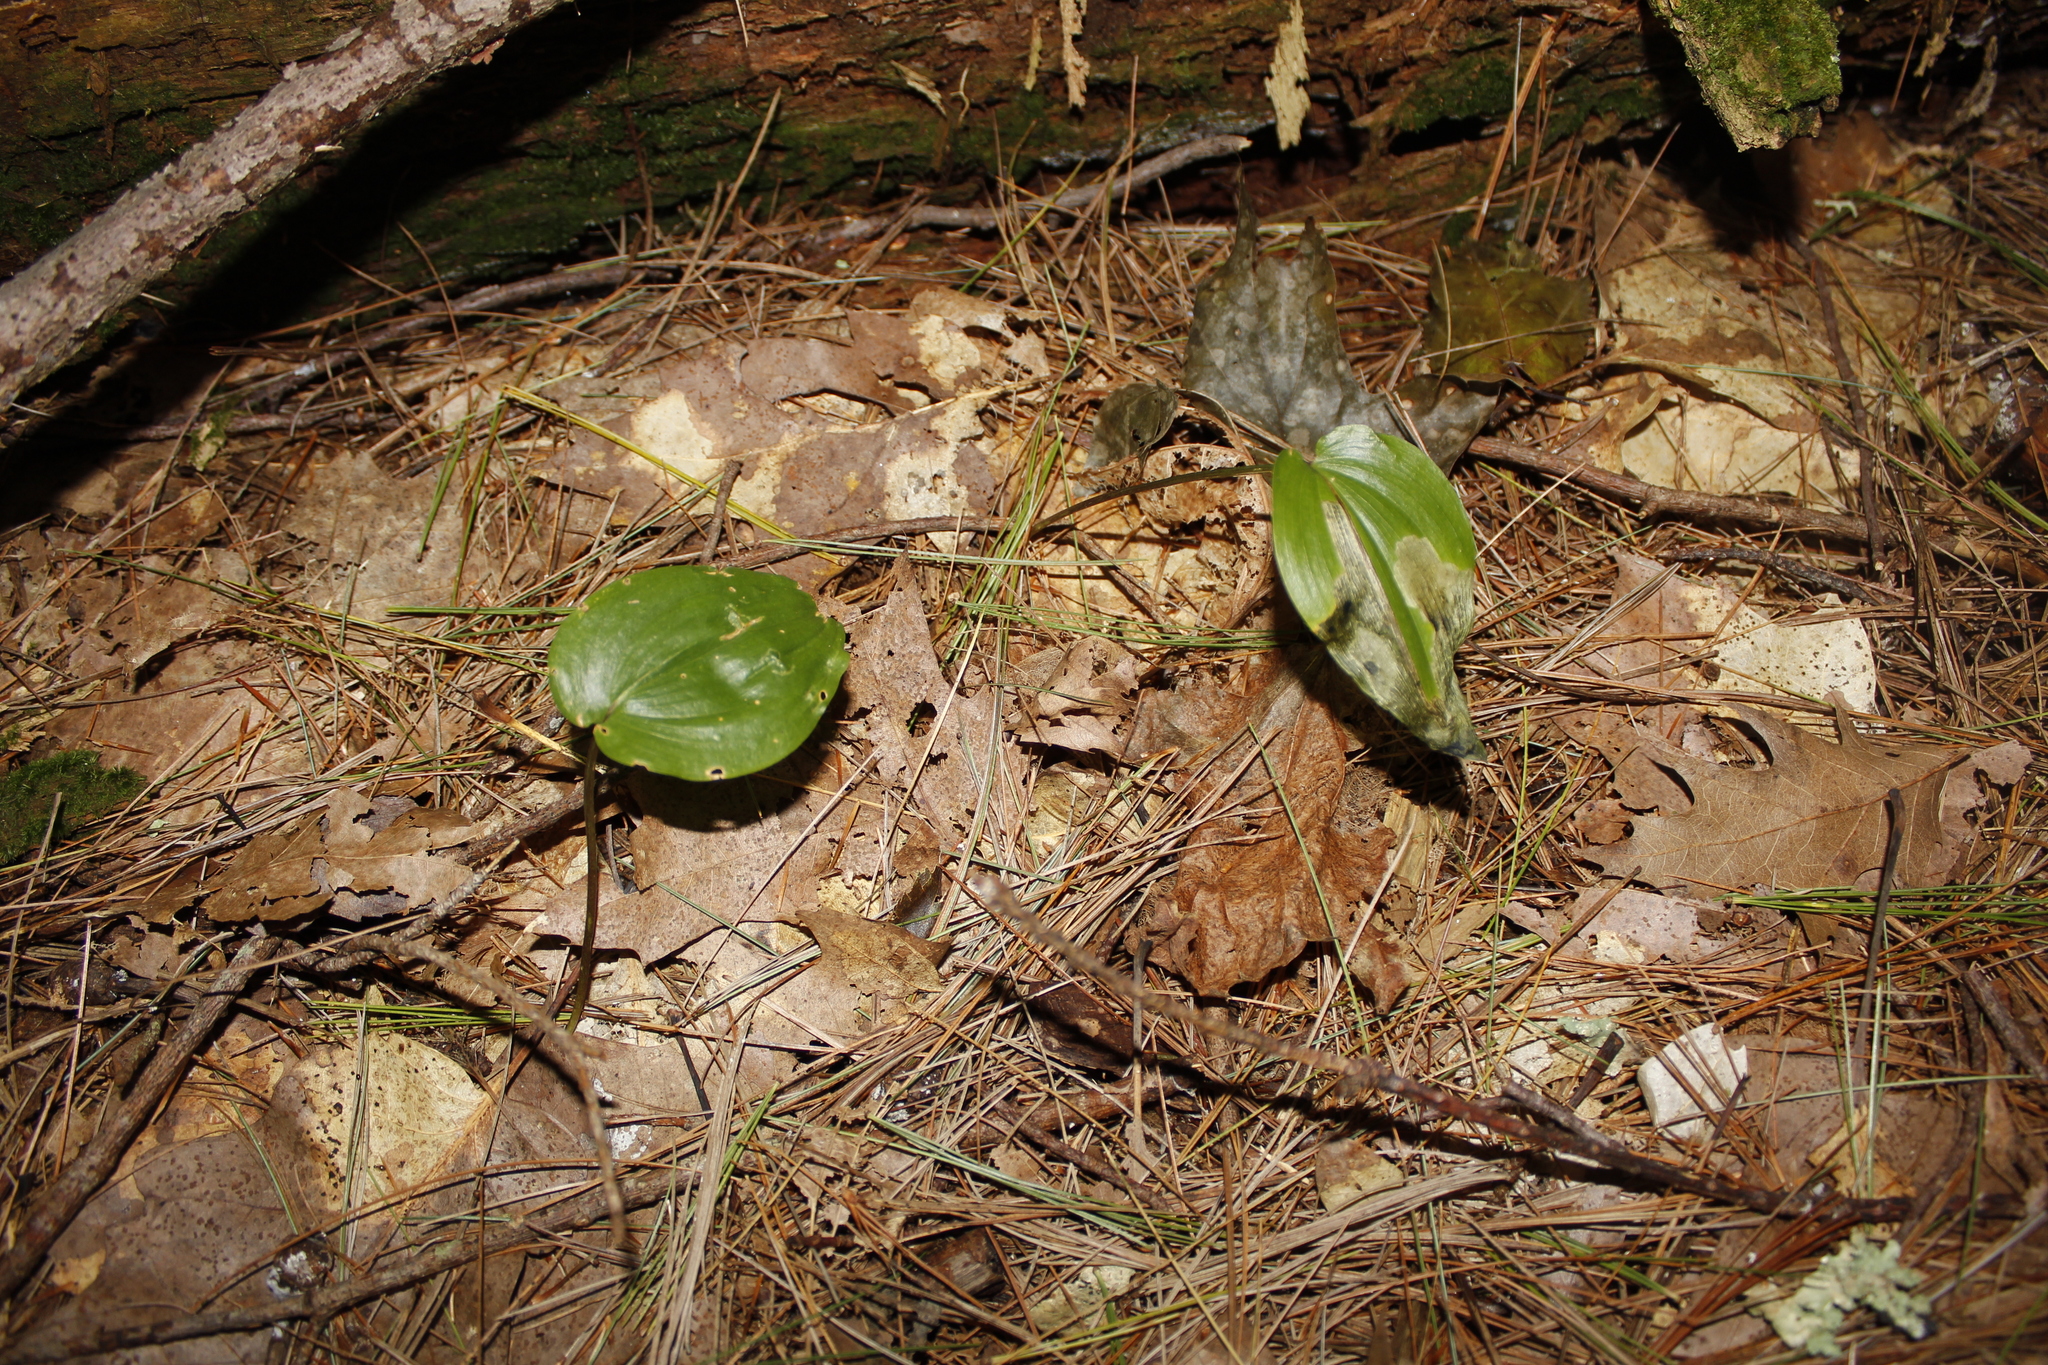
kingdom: Plantae
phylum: Tracheophyta
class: Liliopsida
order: Asparagales
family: Asparagaceae
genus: Maianthemum
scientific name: Maianthemum canadense
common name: False lily-of-the-valley
